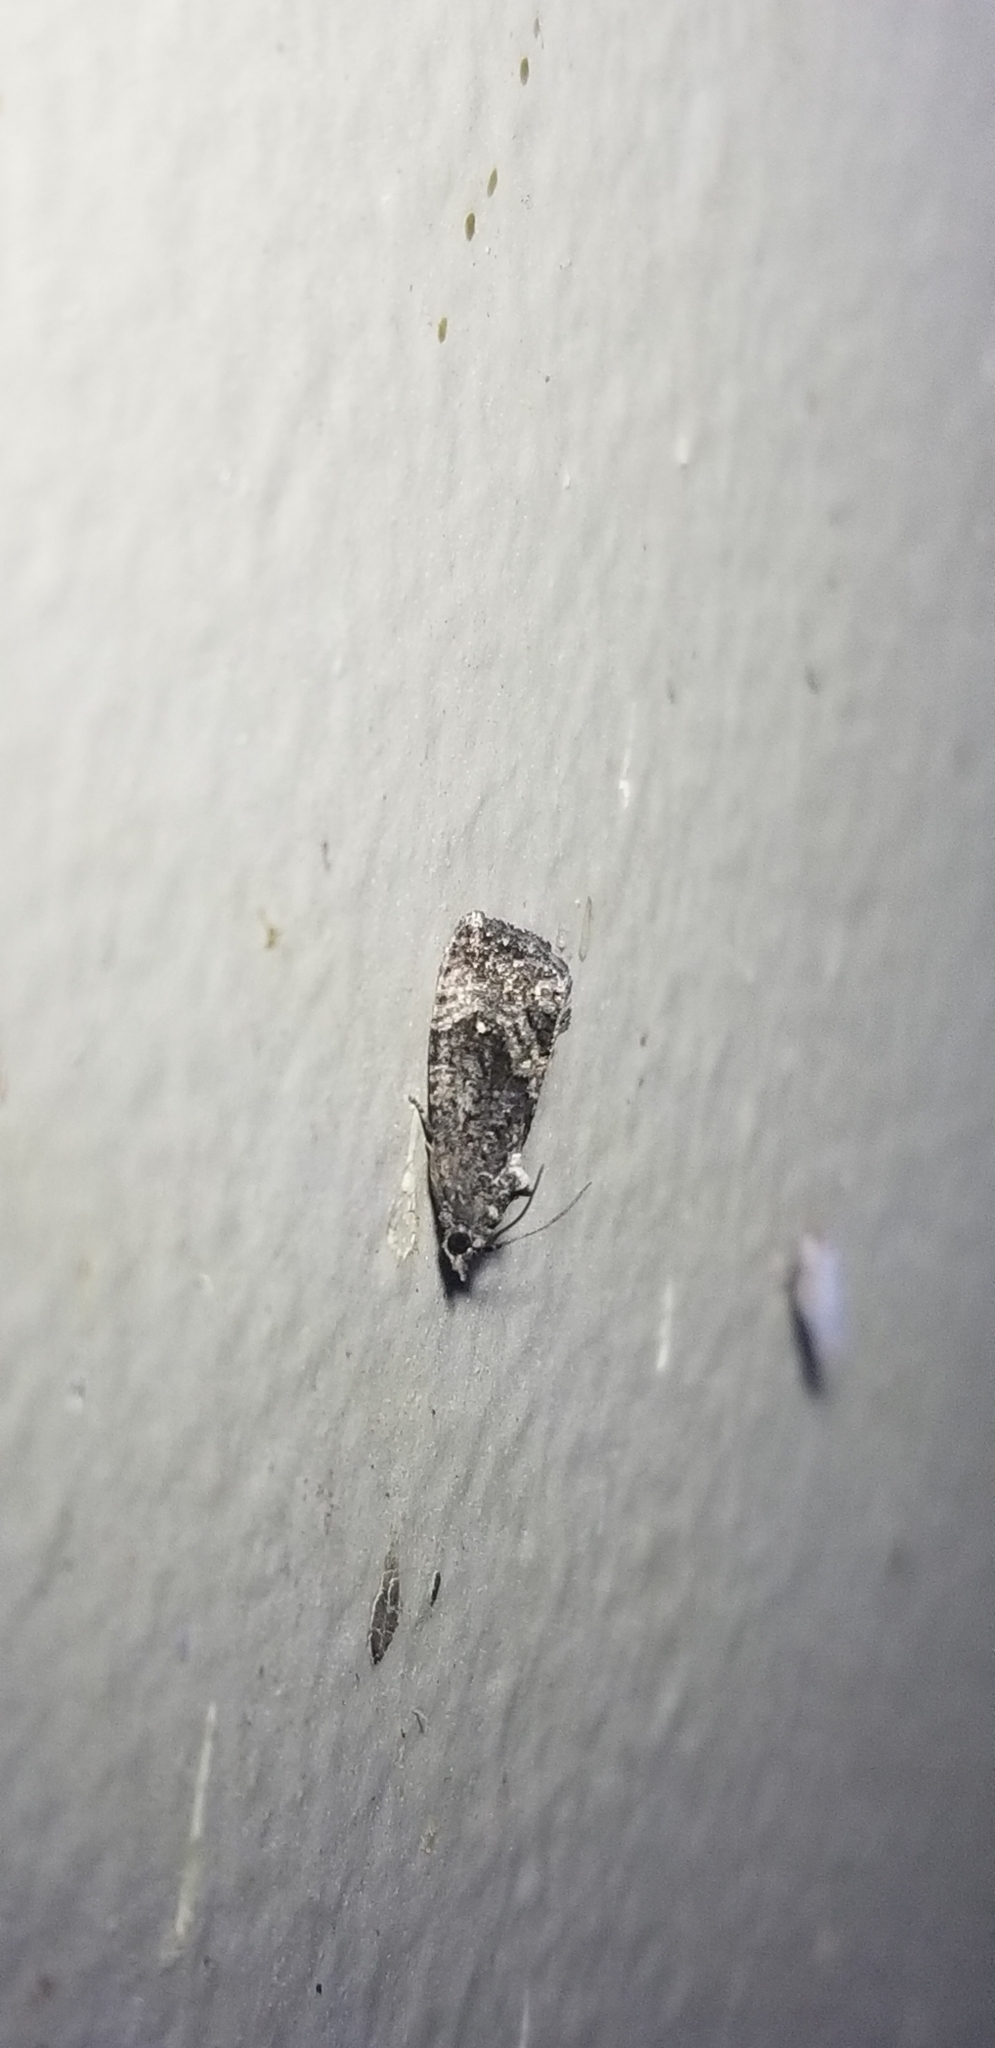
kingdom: Animalia
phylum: Arthropoda
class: Insecta
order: Lepidoptera
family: Tortricidae
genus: Gymnandrosoma
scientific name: Gymnandrosoma punctidiscanum
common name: Dotted ecdytolopha moth
